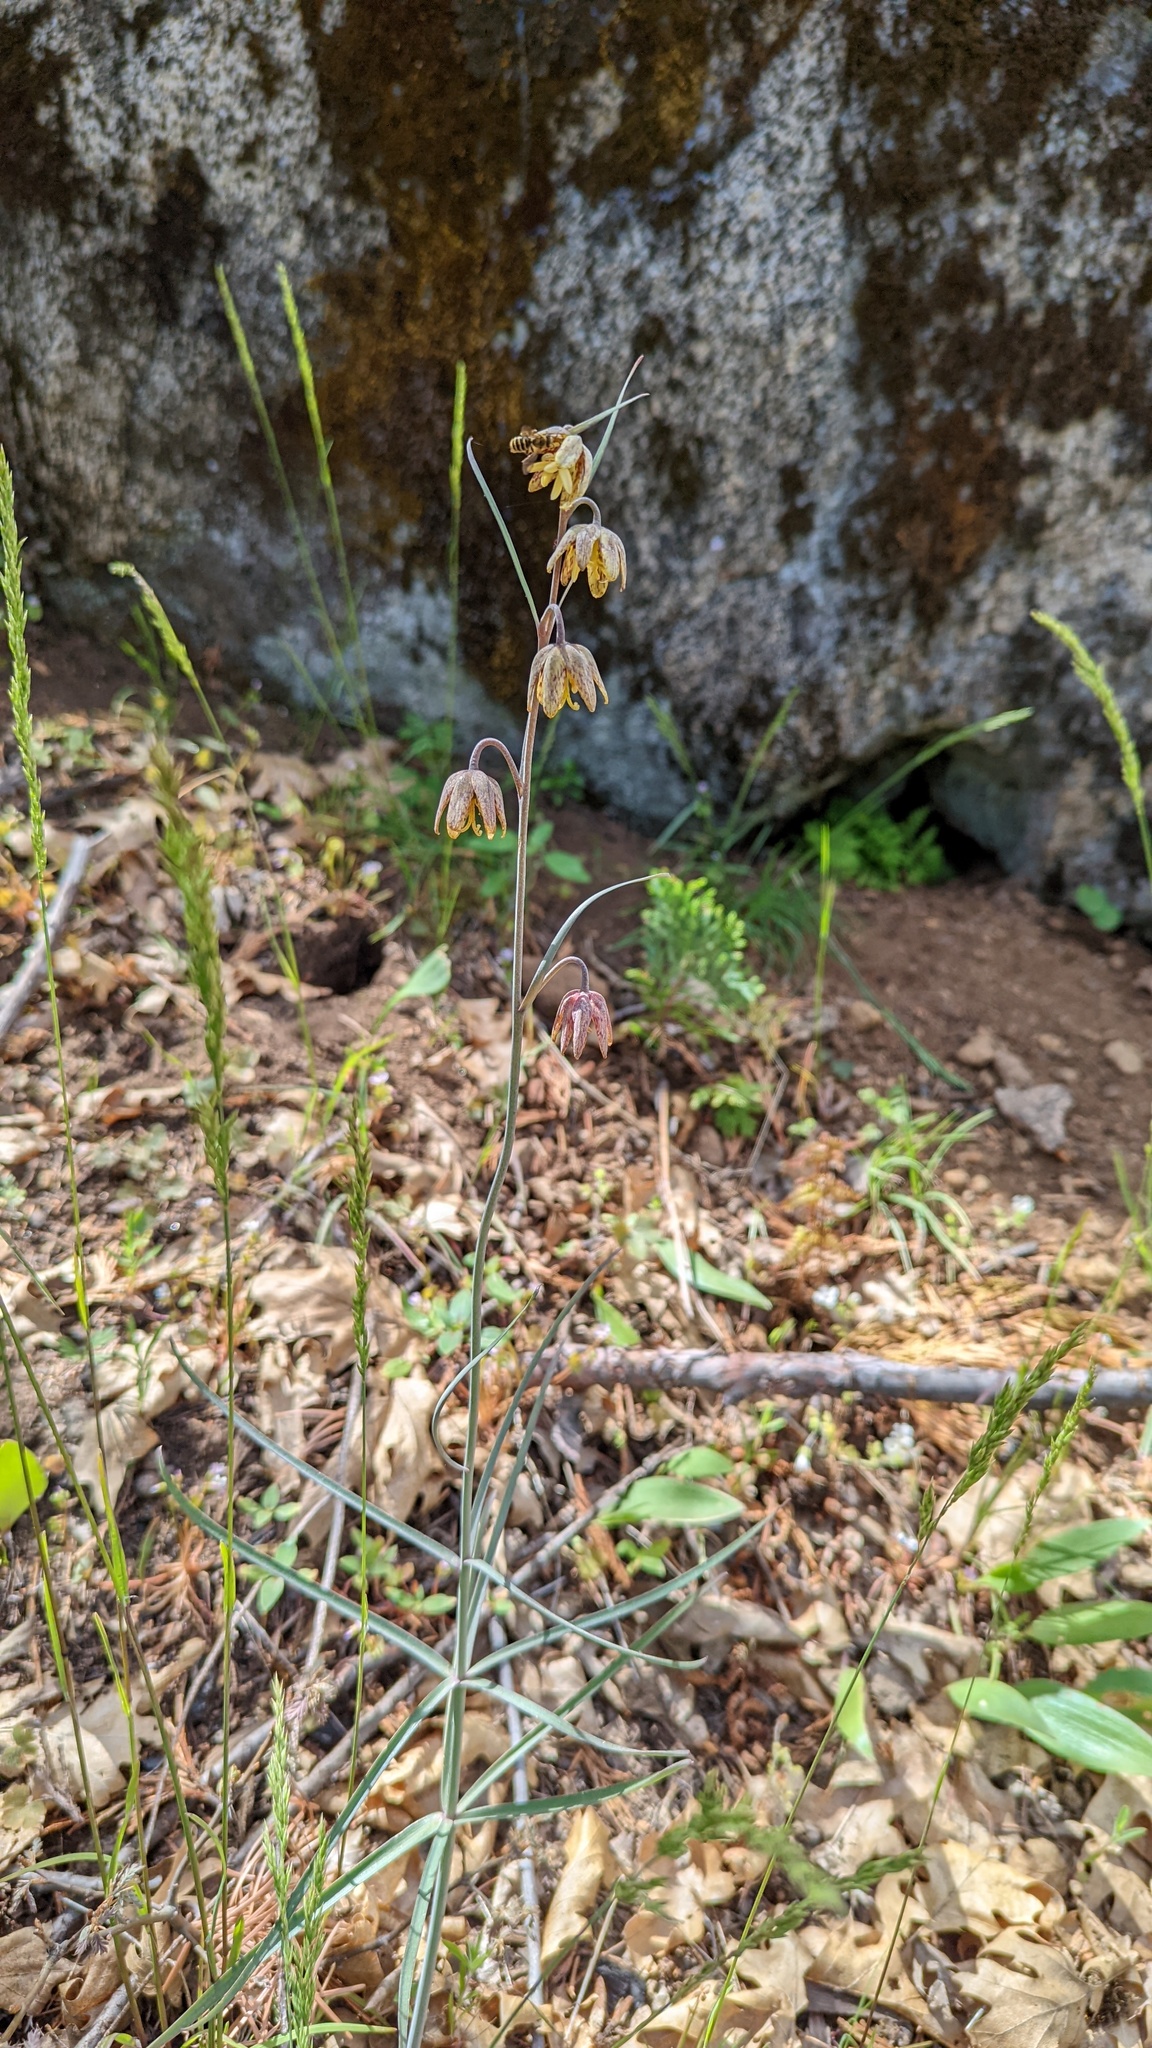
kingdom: Plantae
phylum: Tracheophyta
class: Liliopsida
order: Liliales
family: Liliaceae
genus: Fritillaria
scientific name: Fritillaria micrantha
